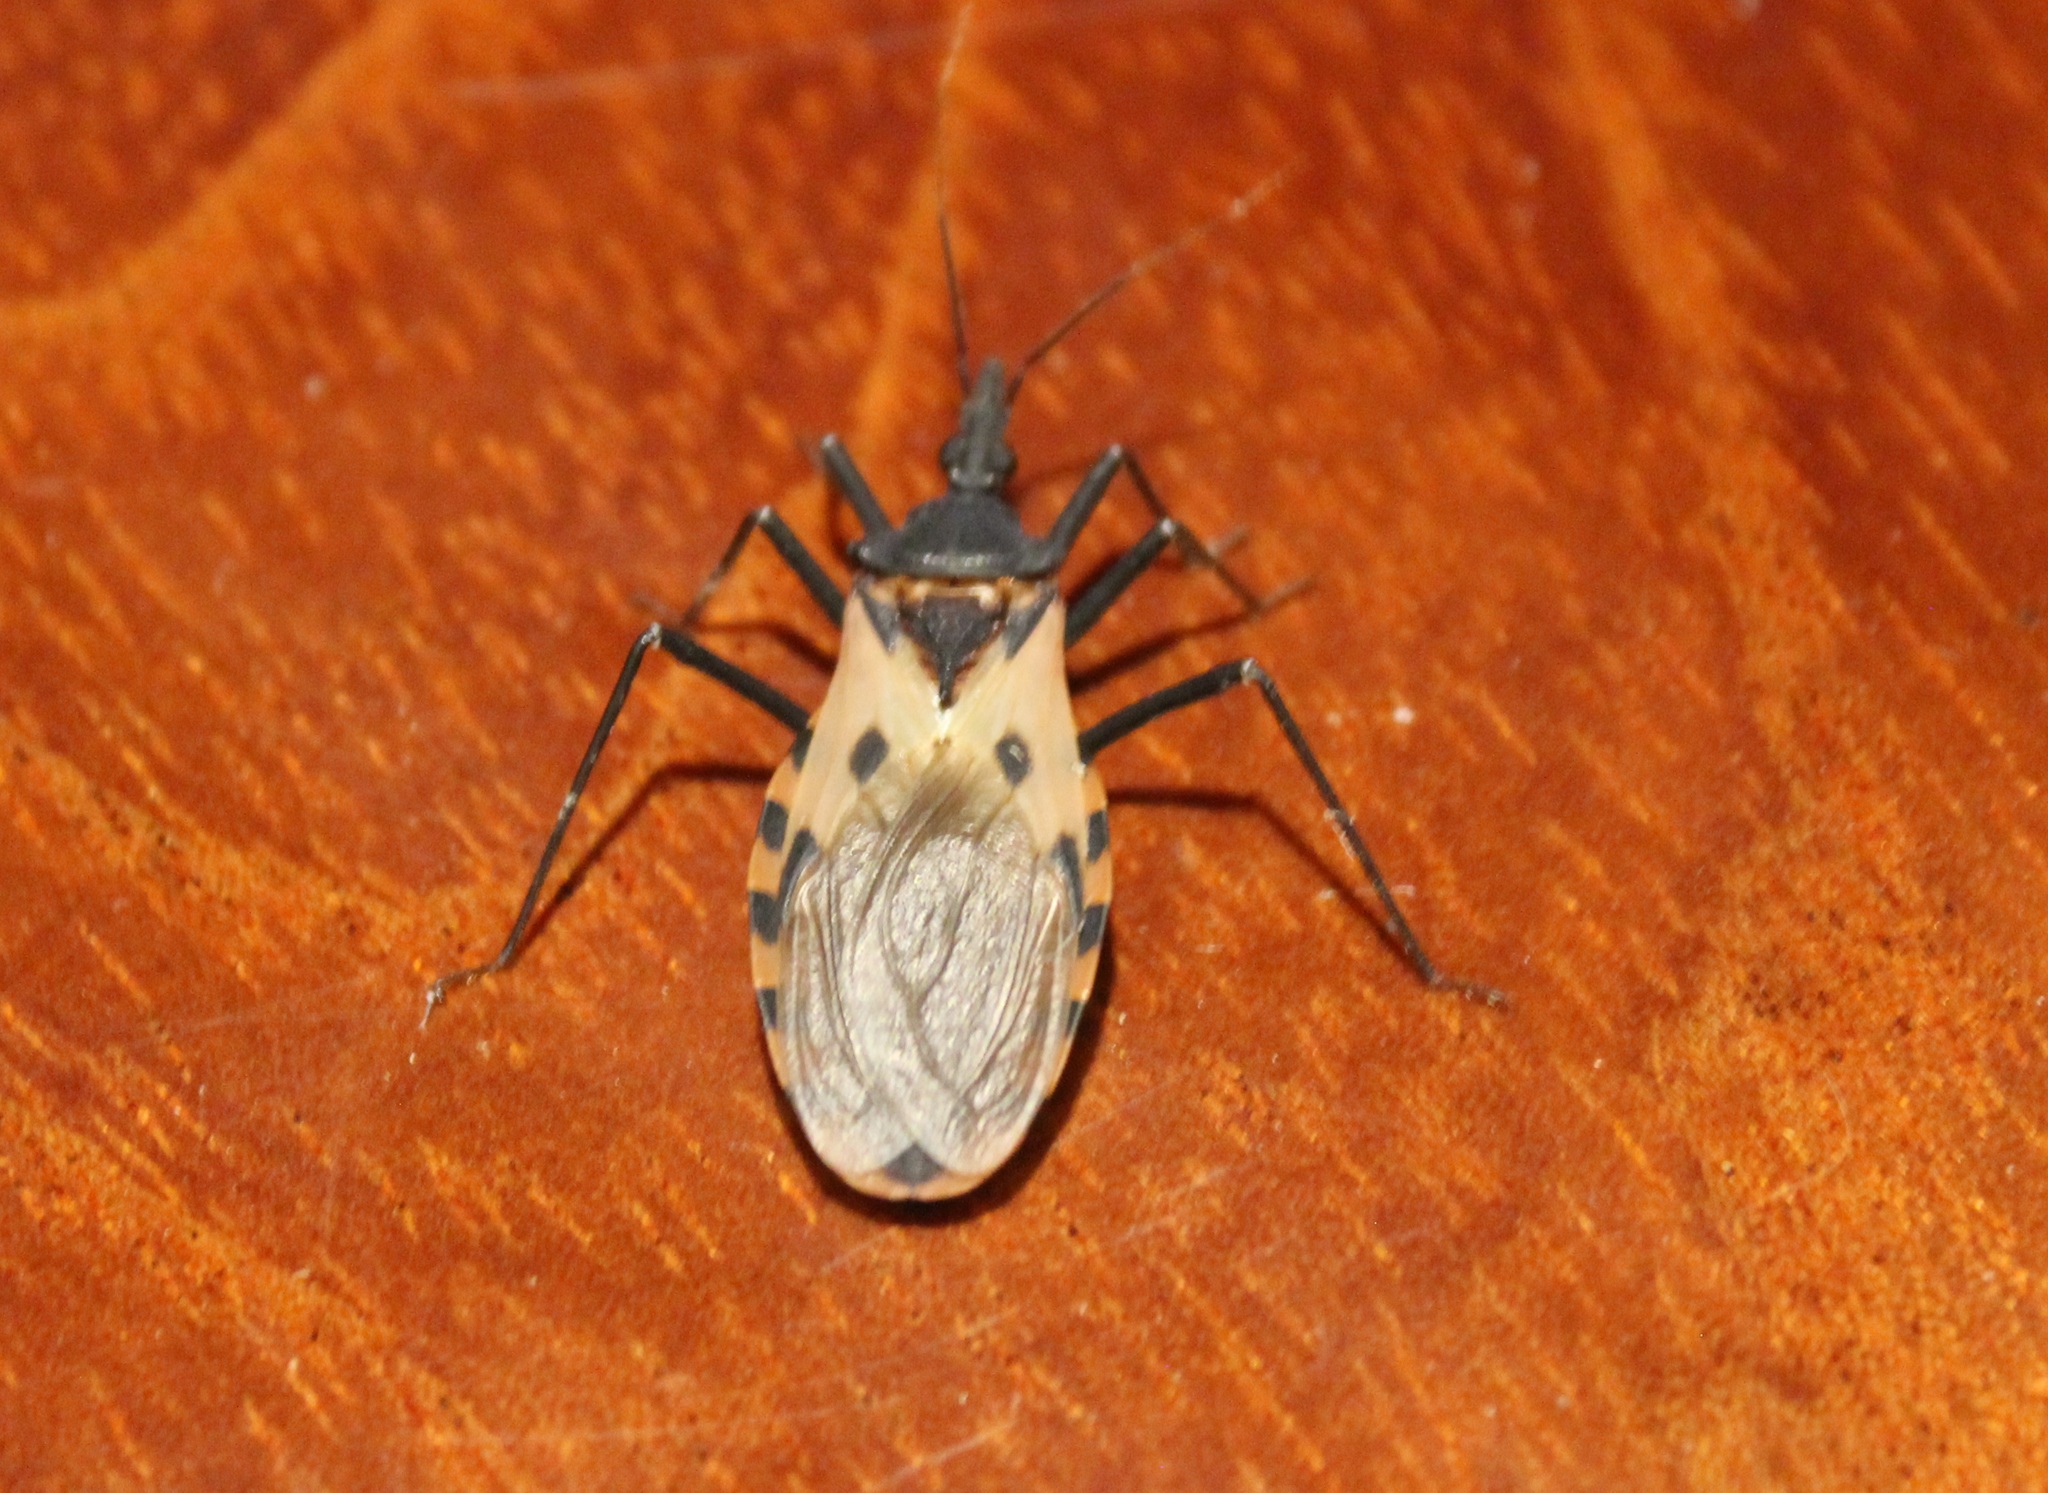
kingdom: Animalia
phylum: Arthropoda
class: Insecta
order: Hemiptera
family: Reduviidae
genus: Meccus
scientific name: Meccus dimidiatus
